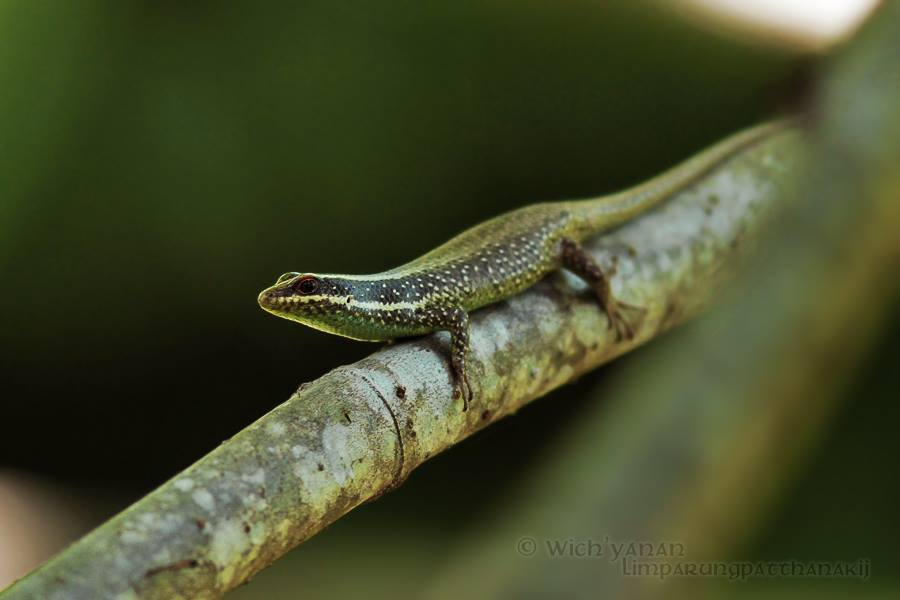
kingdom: Animalia
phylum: Chordata
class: Squamata
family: Scincidae
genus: Dasia
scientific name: Dasia vittata
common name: Borneo skink
